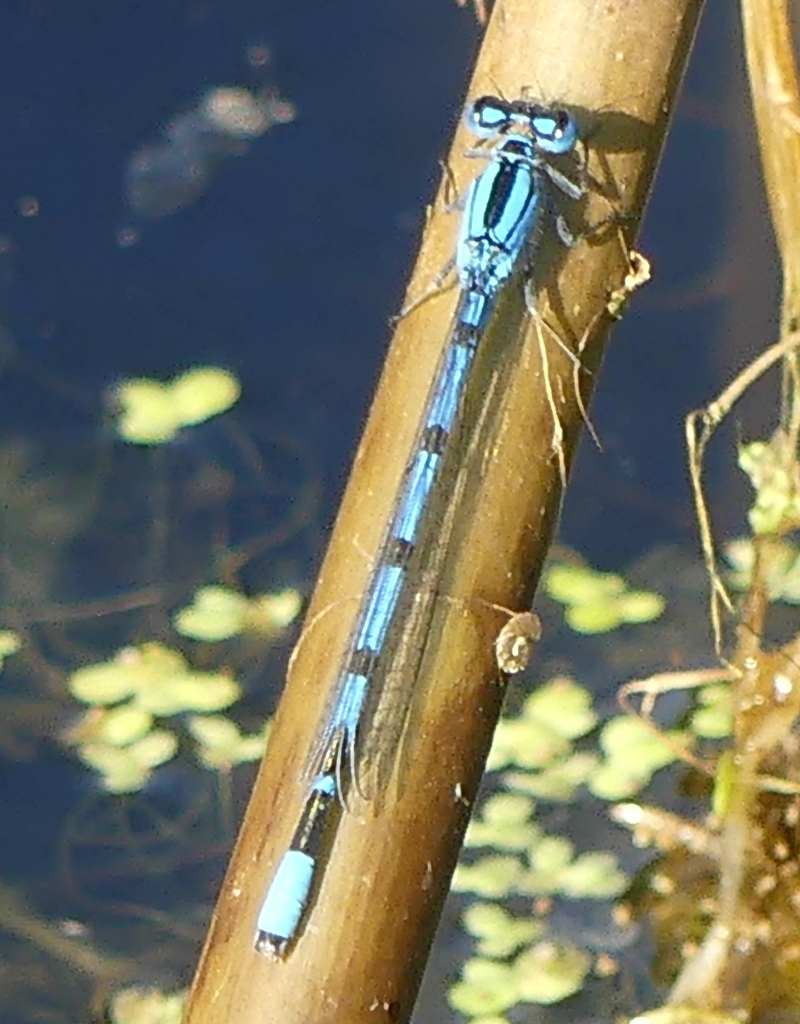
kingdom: Animalia
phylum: Arthropoda
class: Insecta
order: Odonata
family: Coenagrionidae
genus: Enallagma
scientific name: Enallagma cyathigerum
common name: Common blue damselfly
